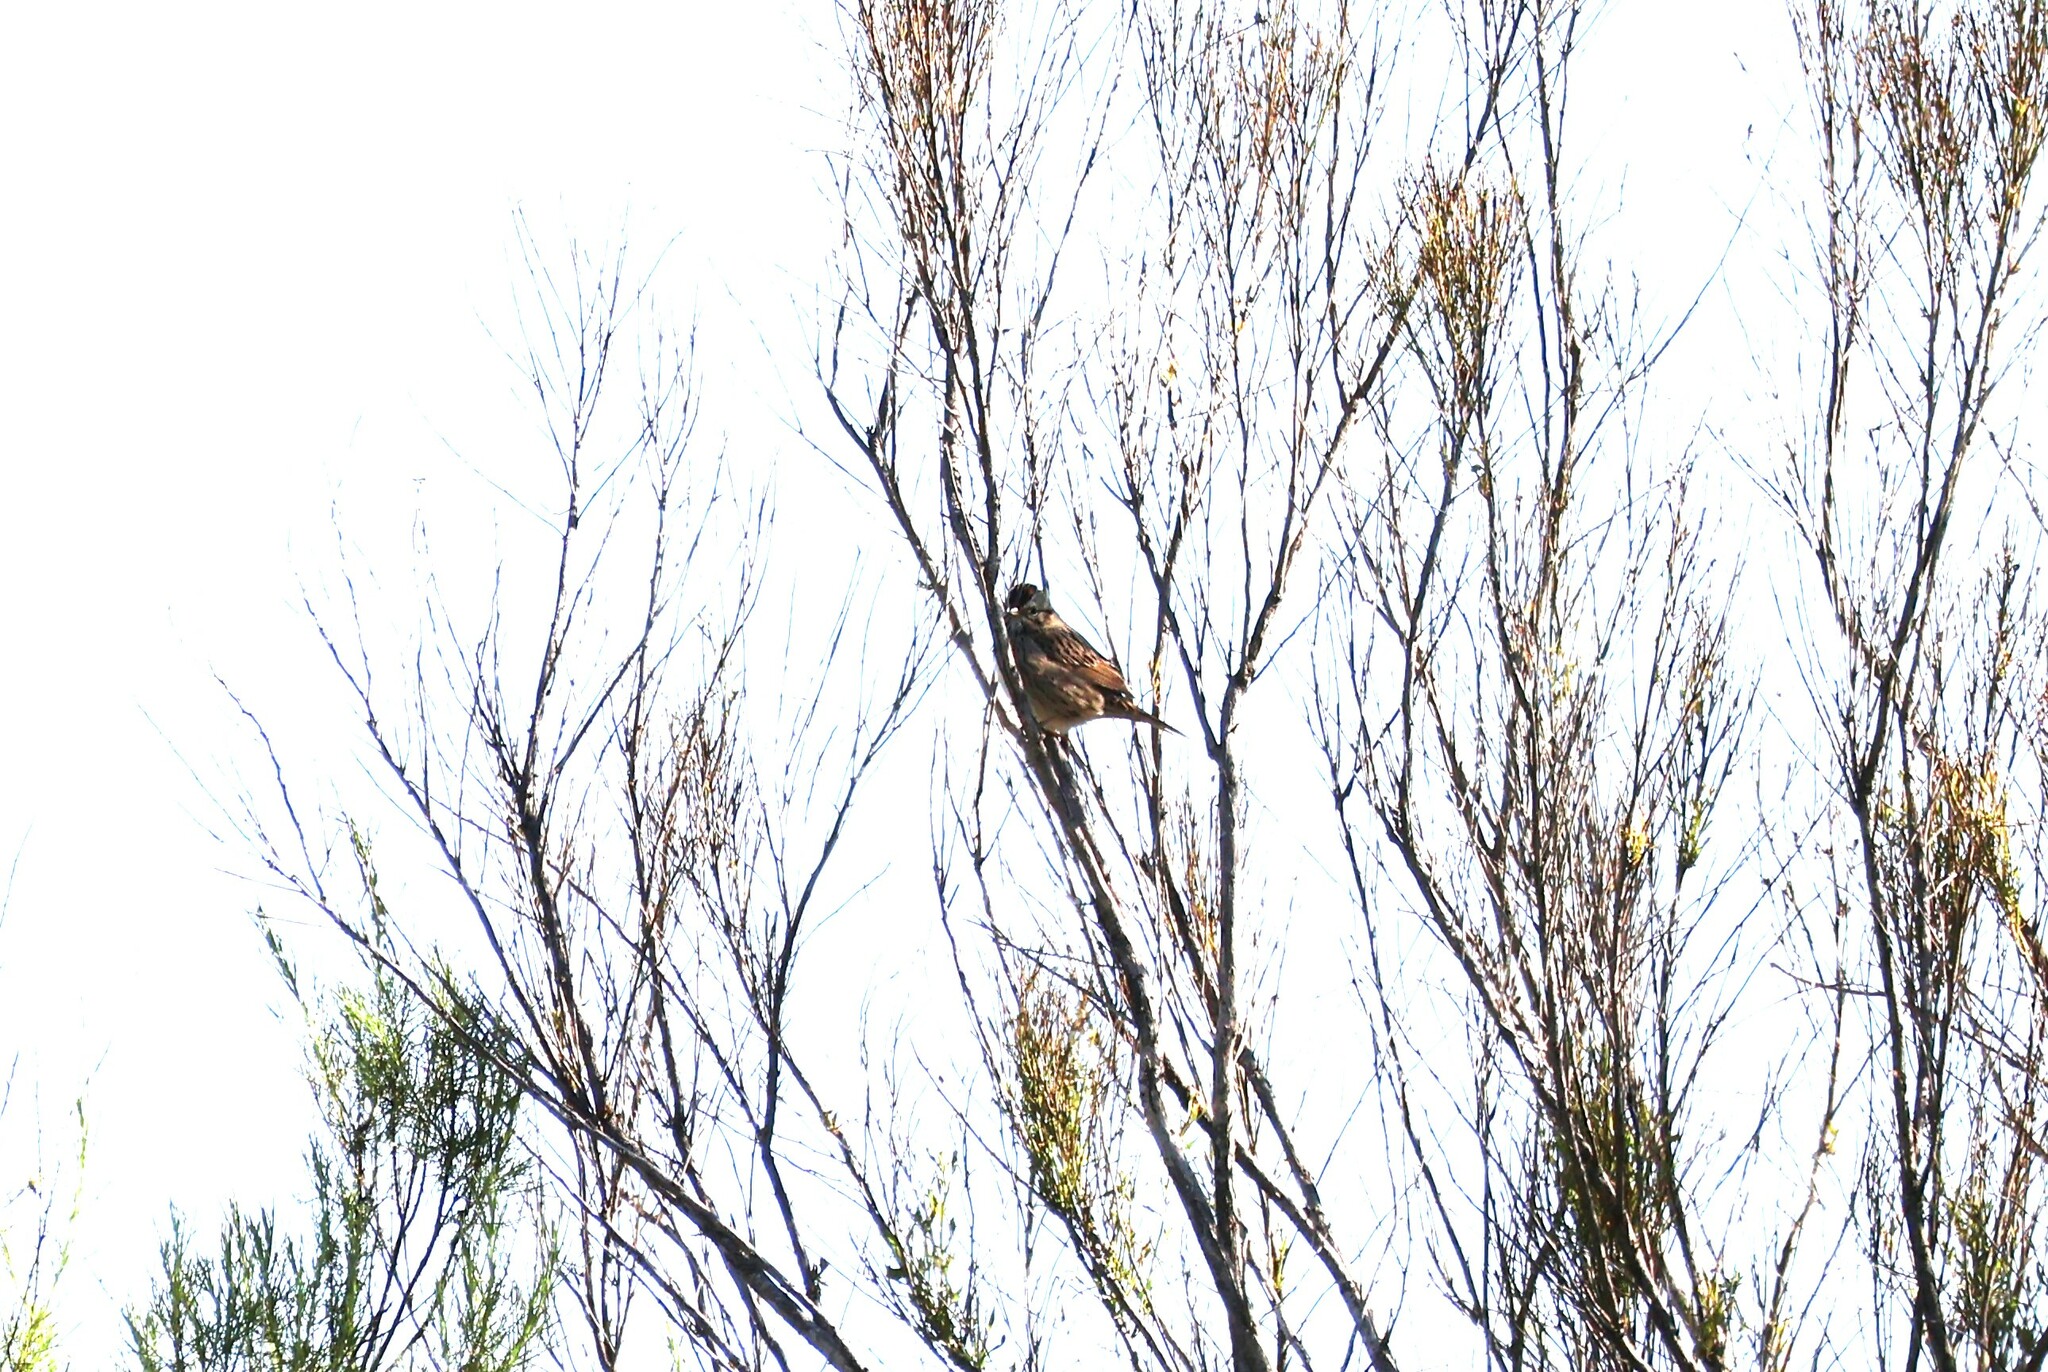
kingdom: Animalia
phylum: Chordata
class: Aves
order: Passeriformes
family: Passerellidae
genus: Melospiza
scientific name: Melospiza lincolnii
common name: Lincoln's sparrow
